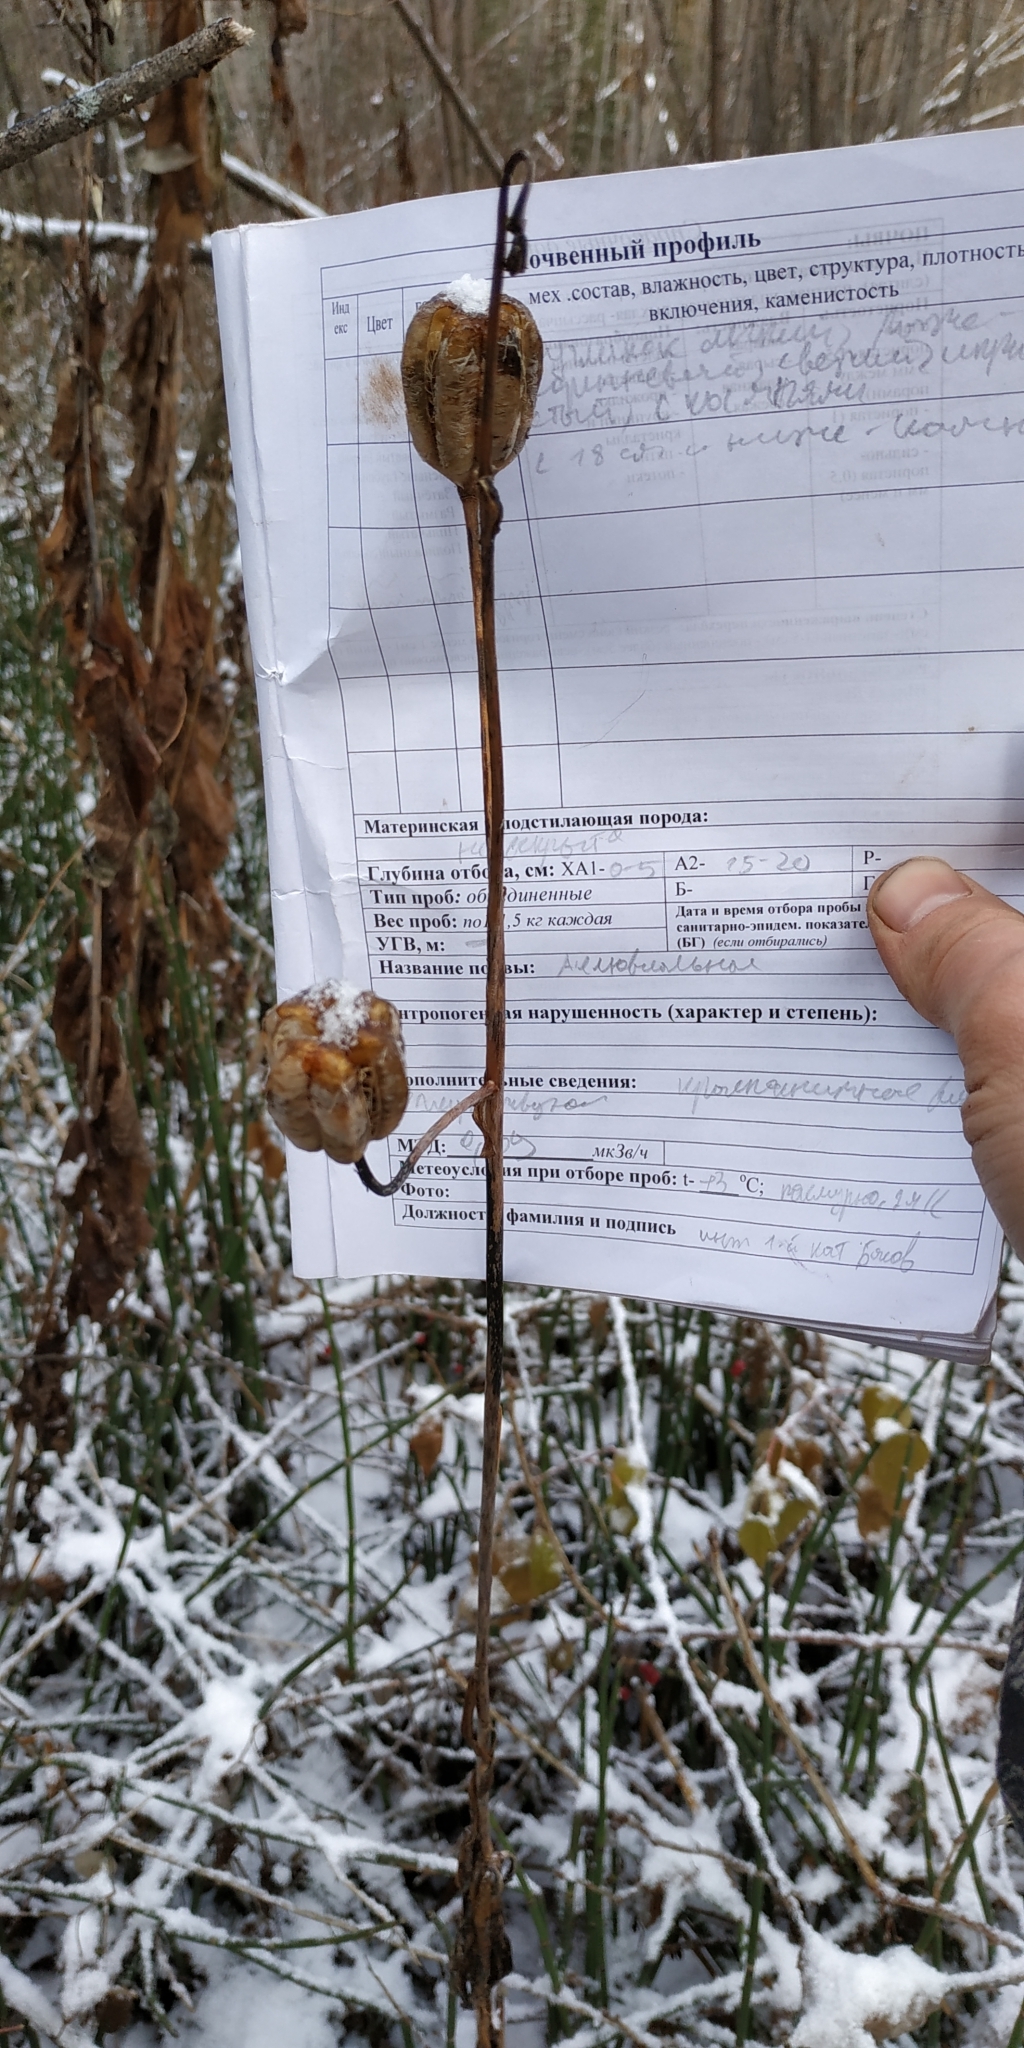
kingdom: Plantae
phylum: Tracheophyta
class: Liliopsida
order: Liliales
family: Liliaceae
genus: Lilium
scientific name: Lilium martagon
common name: Martagon lily
